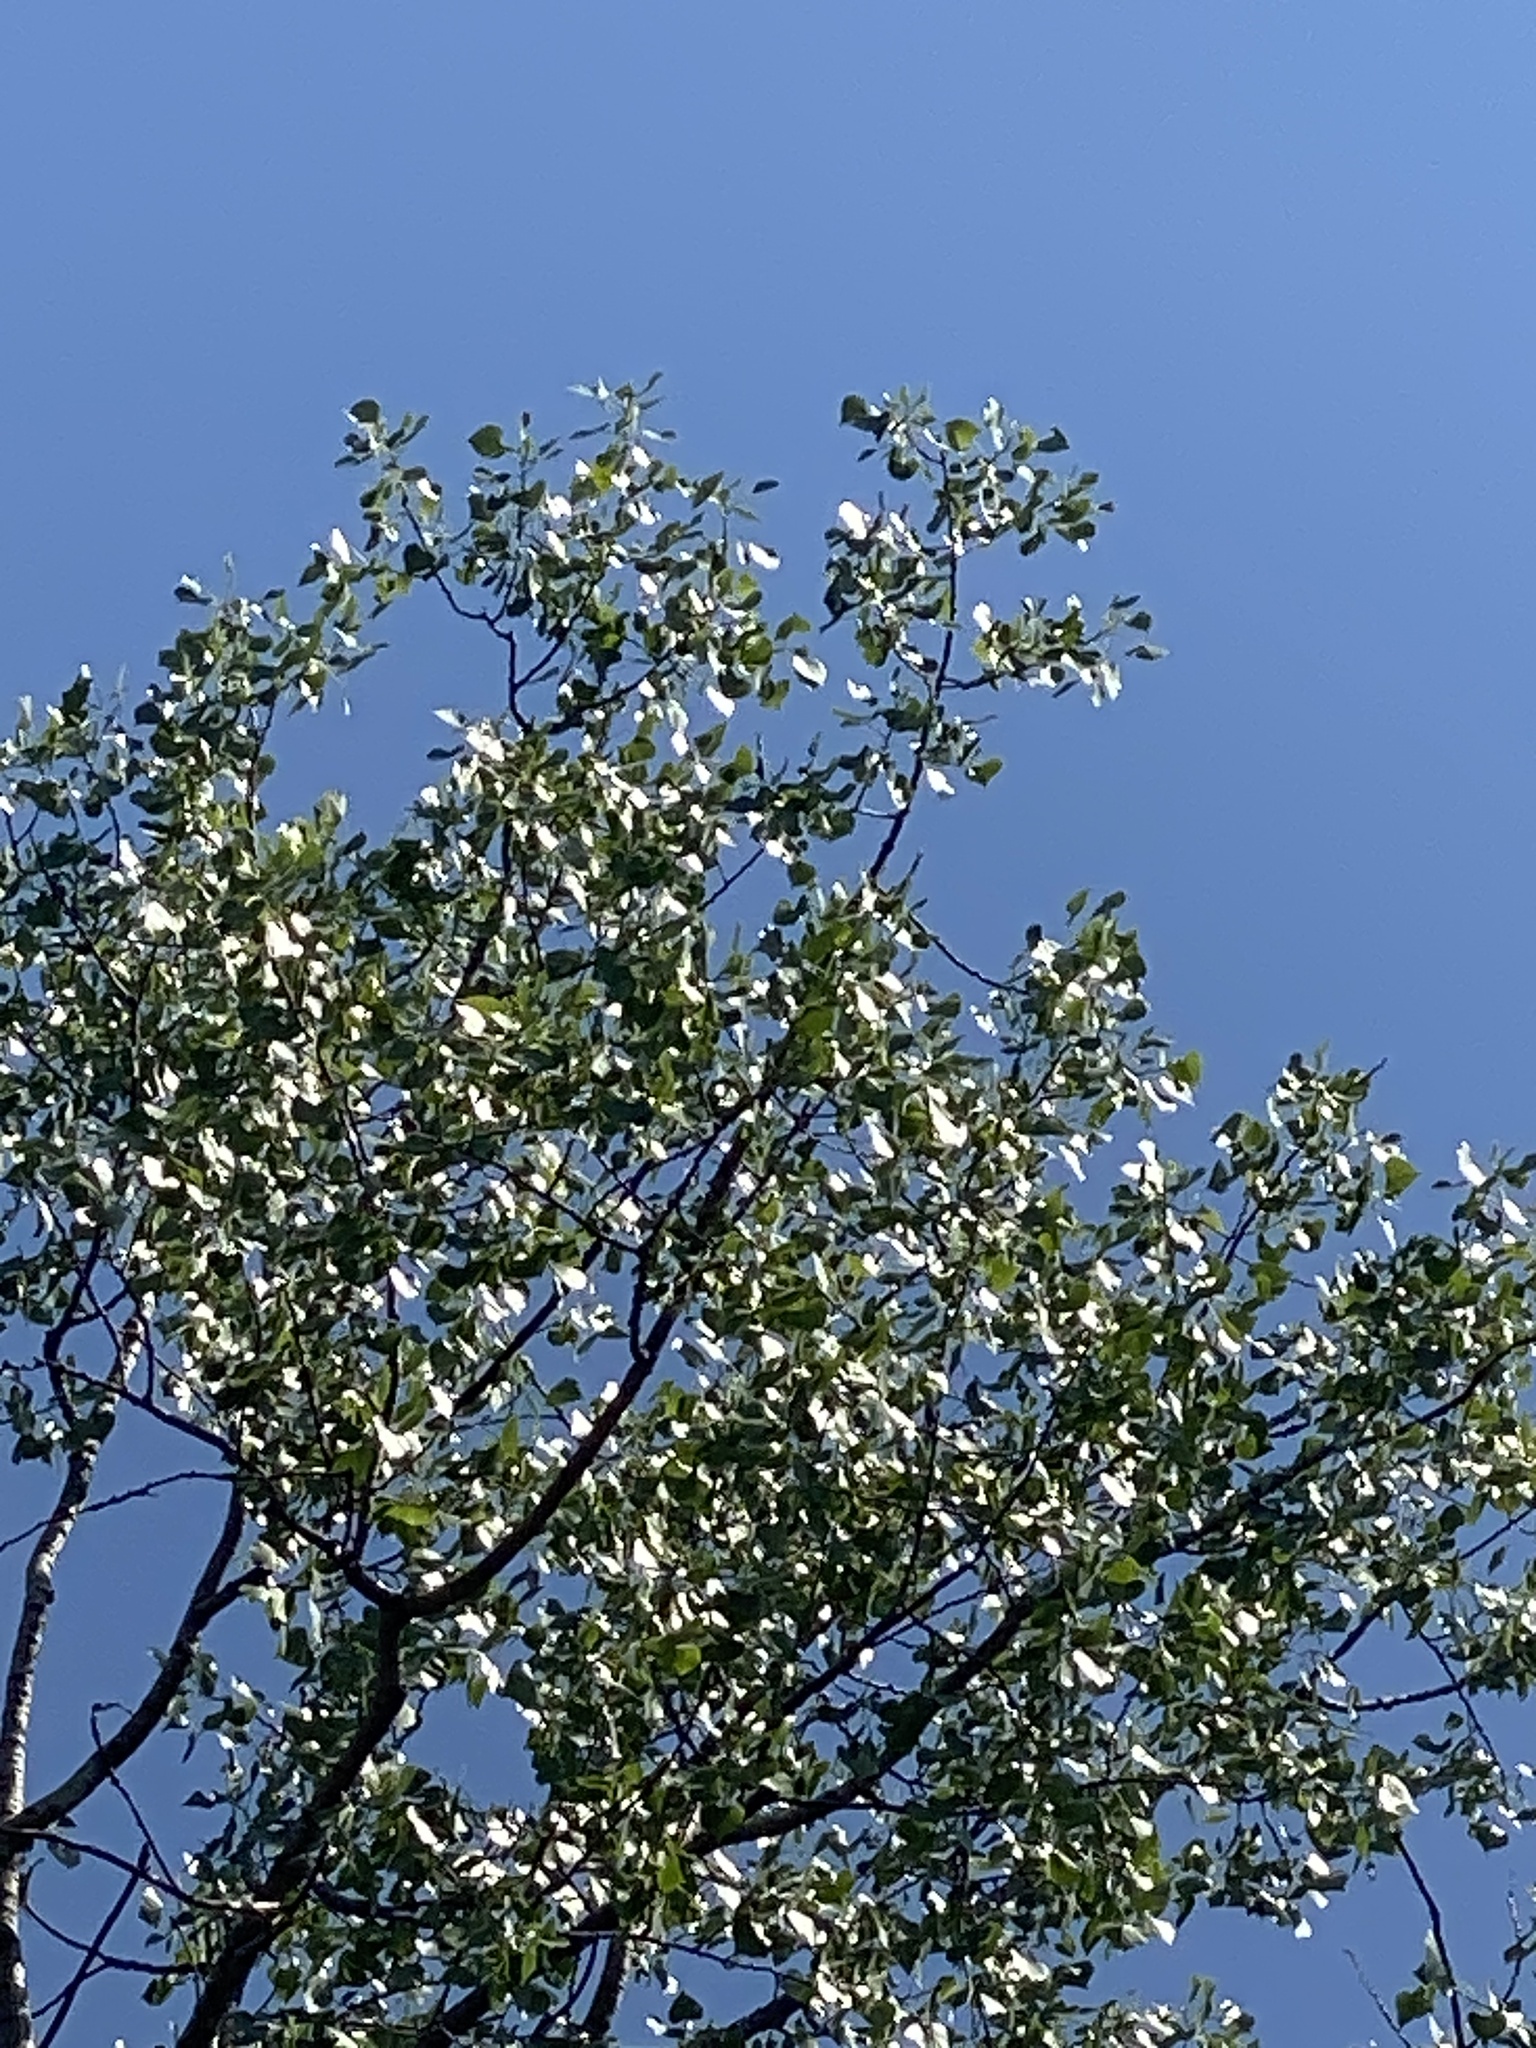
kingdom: Plantae
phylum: Tracheophyta
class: Magnoliopsida
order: Malpighiales
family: Salicaceae
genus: Populus
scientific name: Populus deltoides
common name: Eastern cottonwood
